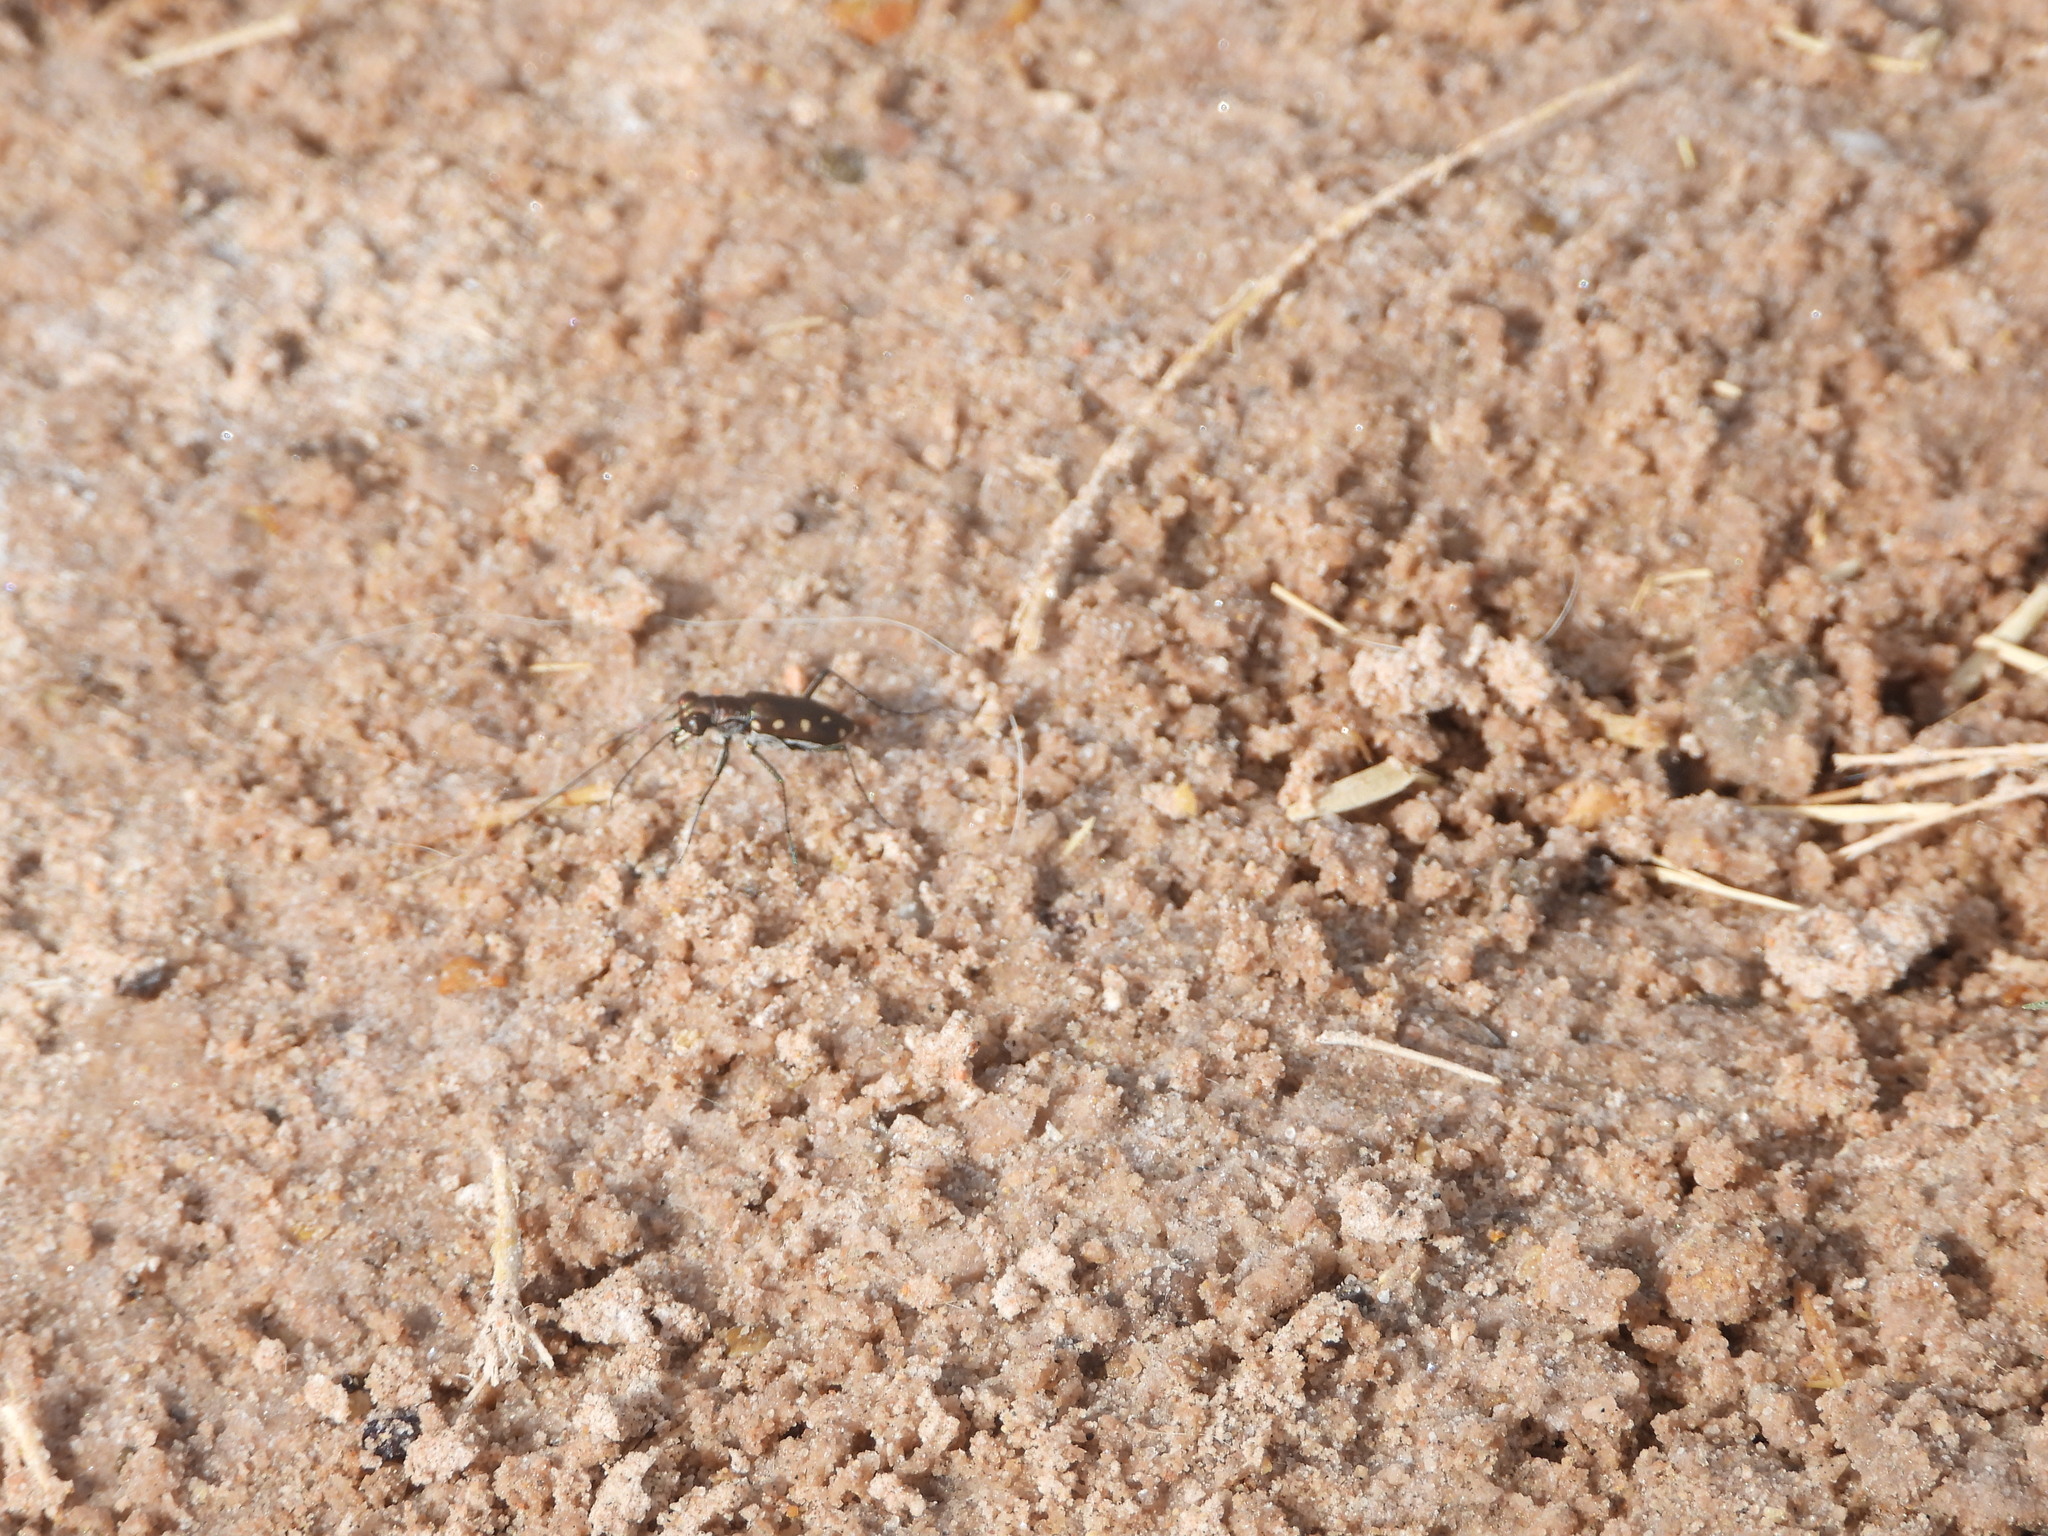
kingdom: Animalia
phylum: Arthropoda
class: Insecta
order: Coleoptera
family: Carabidae
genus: Cicindela
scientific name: Cicindela ocellata
